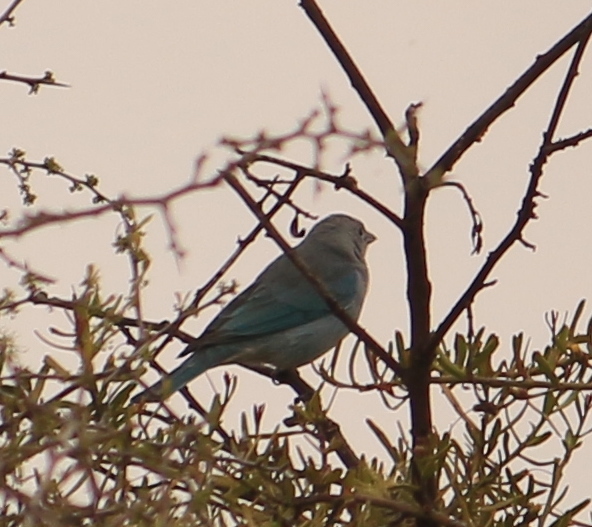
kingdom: Animalia
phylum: Chordata
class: Aves
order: Passeriformes
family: Thraupidae
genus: Thraupis
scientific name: Thraupis sayaca
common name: Sayaca tanager
